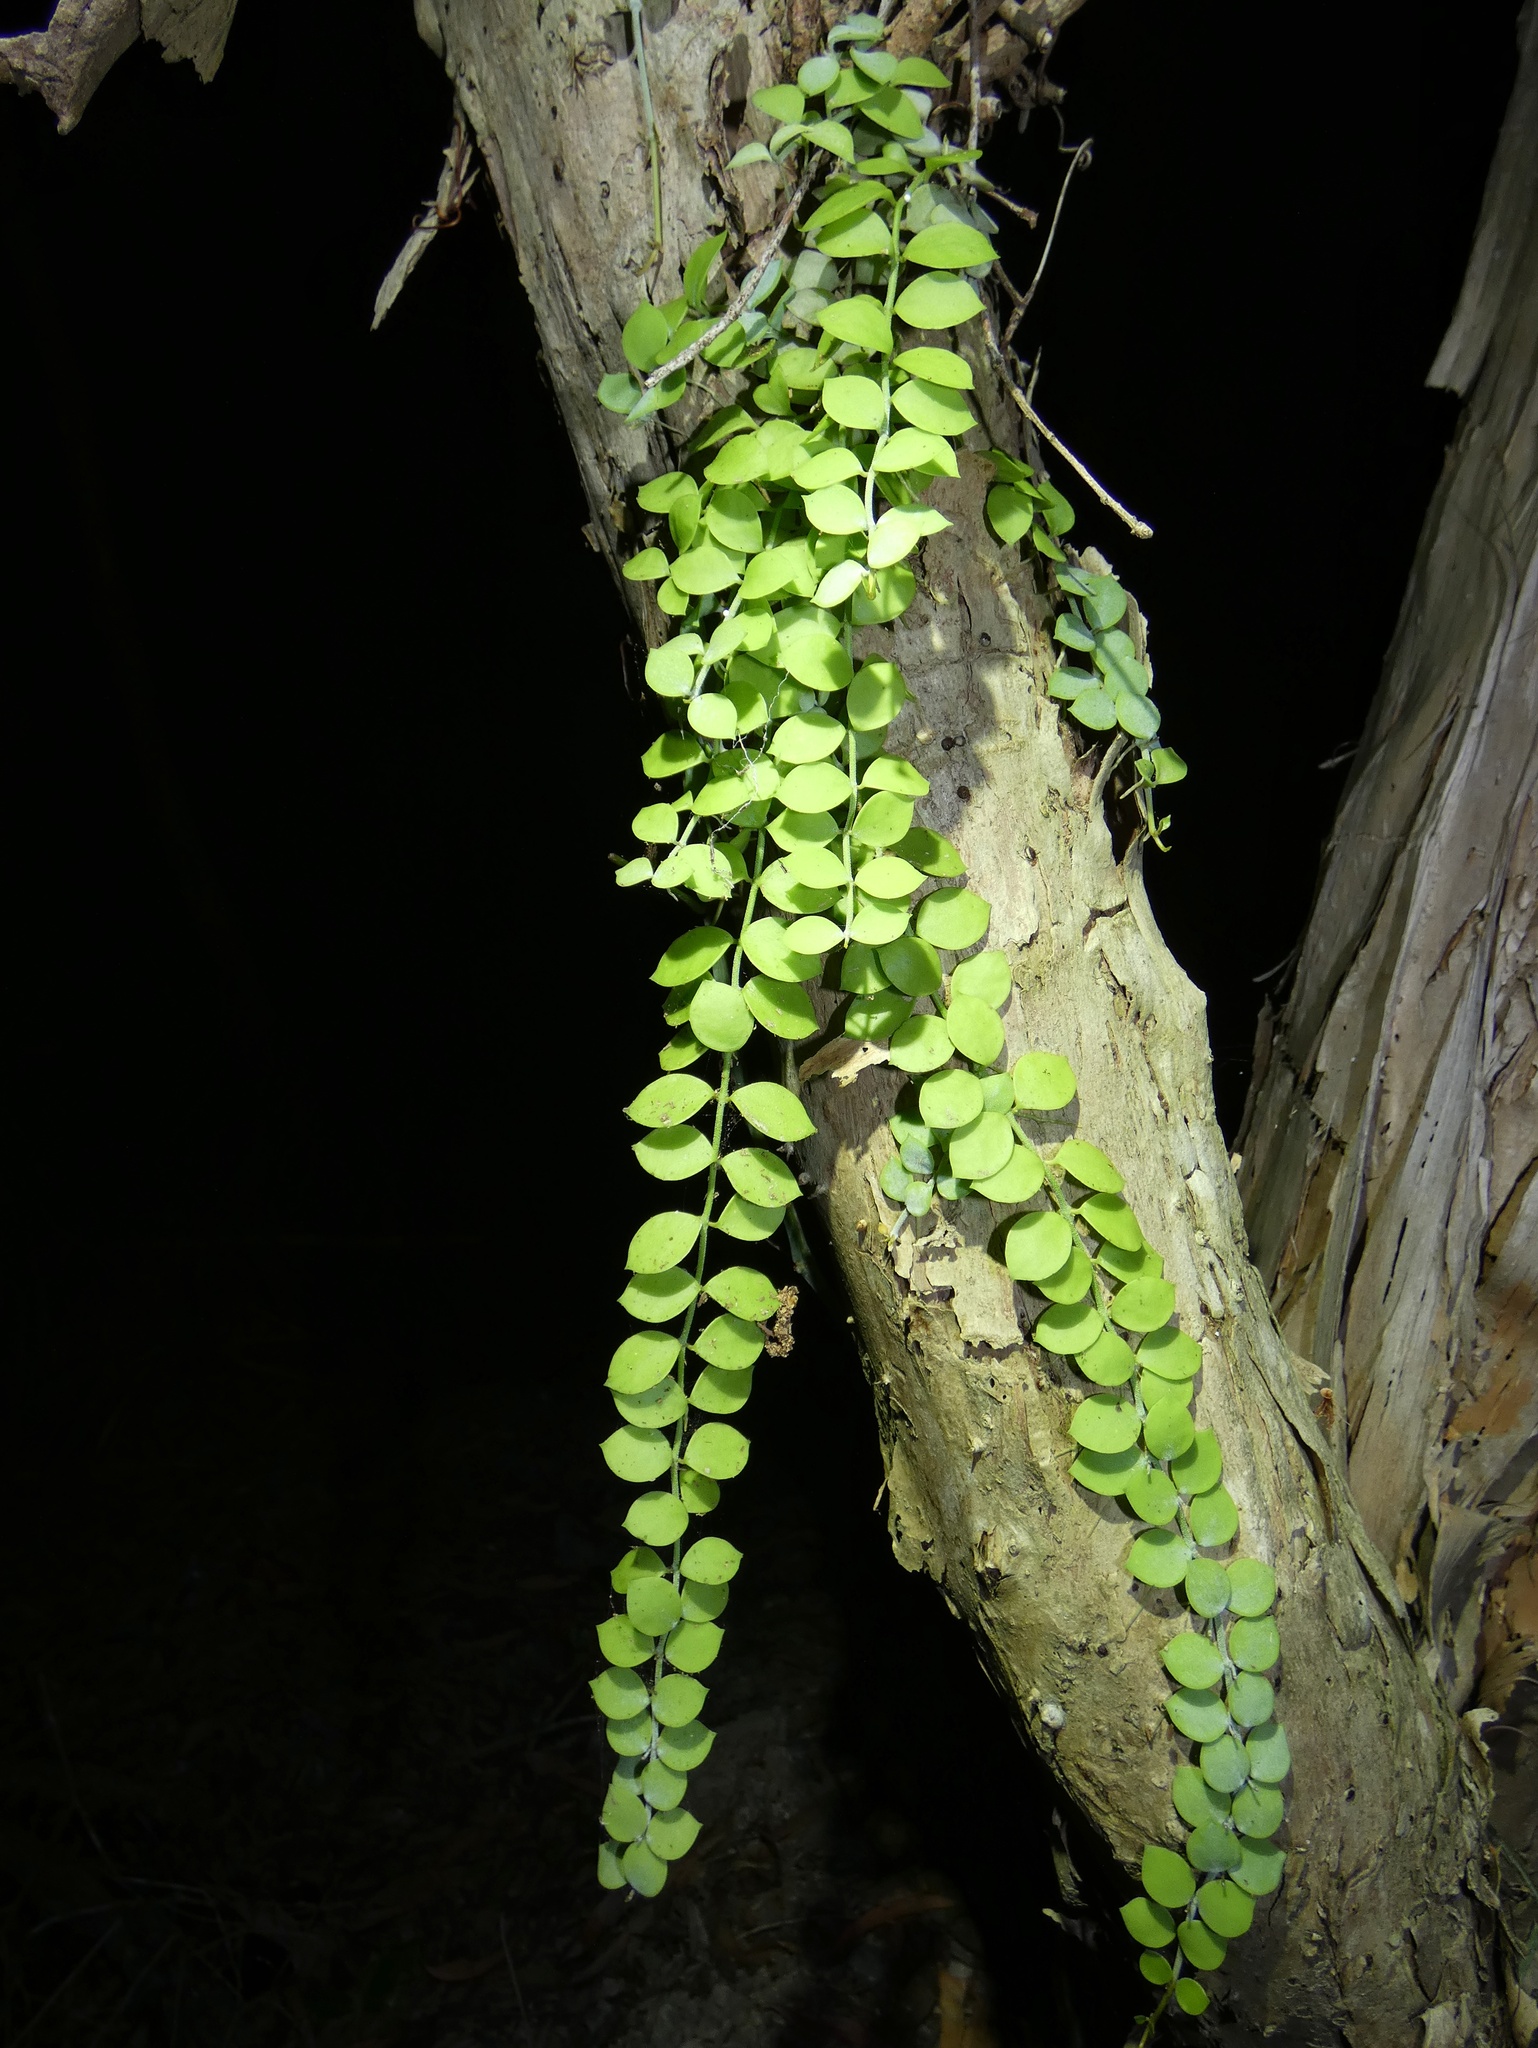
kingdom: Plantae
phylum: Tracheophyta
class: Magnoliopsida
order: Gentianales
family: Apocynaceae
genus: Dischidia
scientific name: Dischidia nummularia
